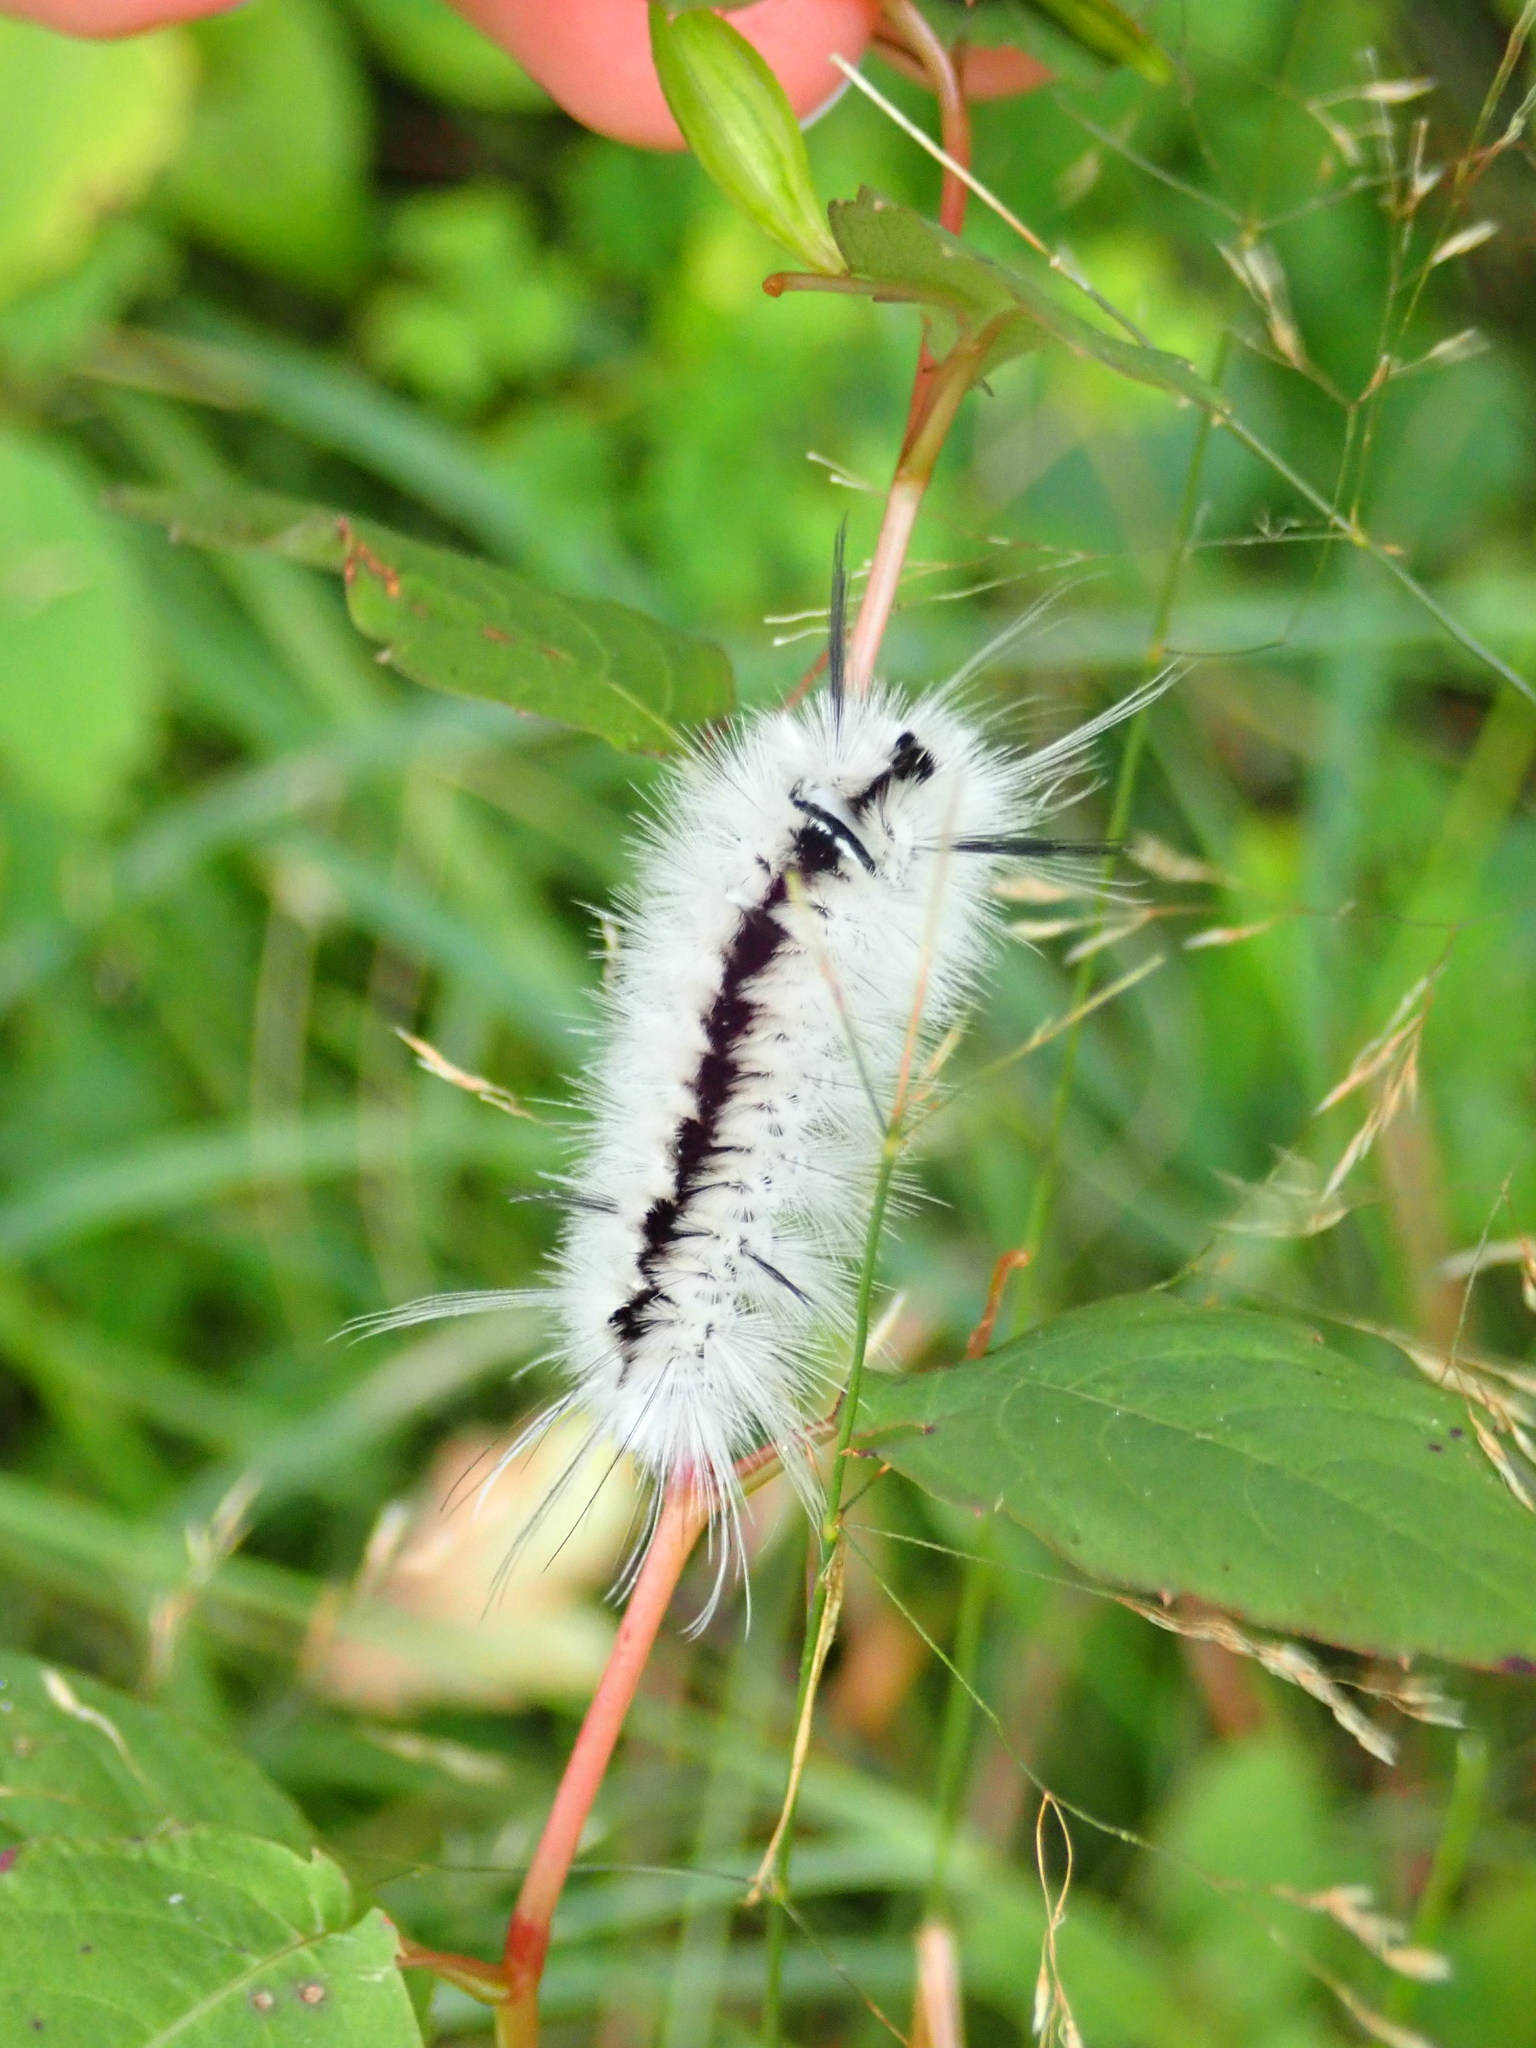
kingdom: Animalia
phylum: Arthropoda
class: Insecta
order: Lepidoptera
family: Erebidae
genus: Lophocampa
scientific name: Lophocampa caryae
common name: Hickory tussock moth
